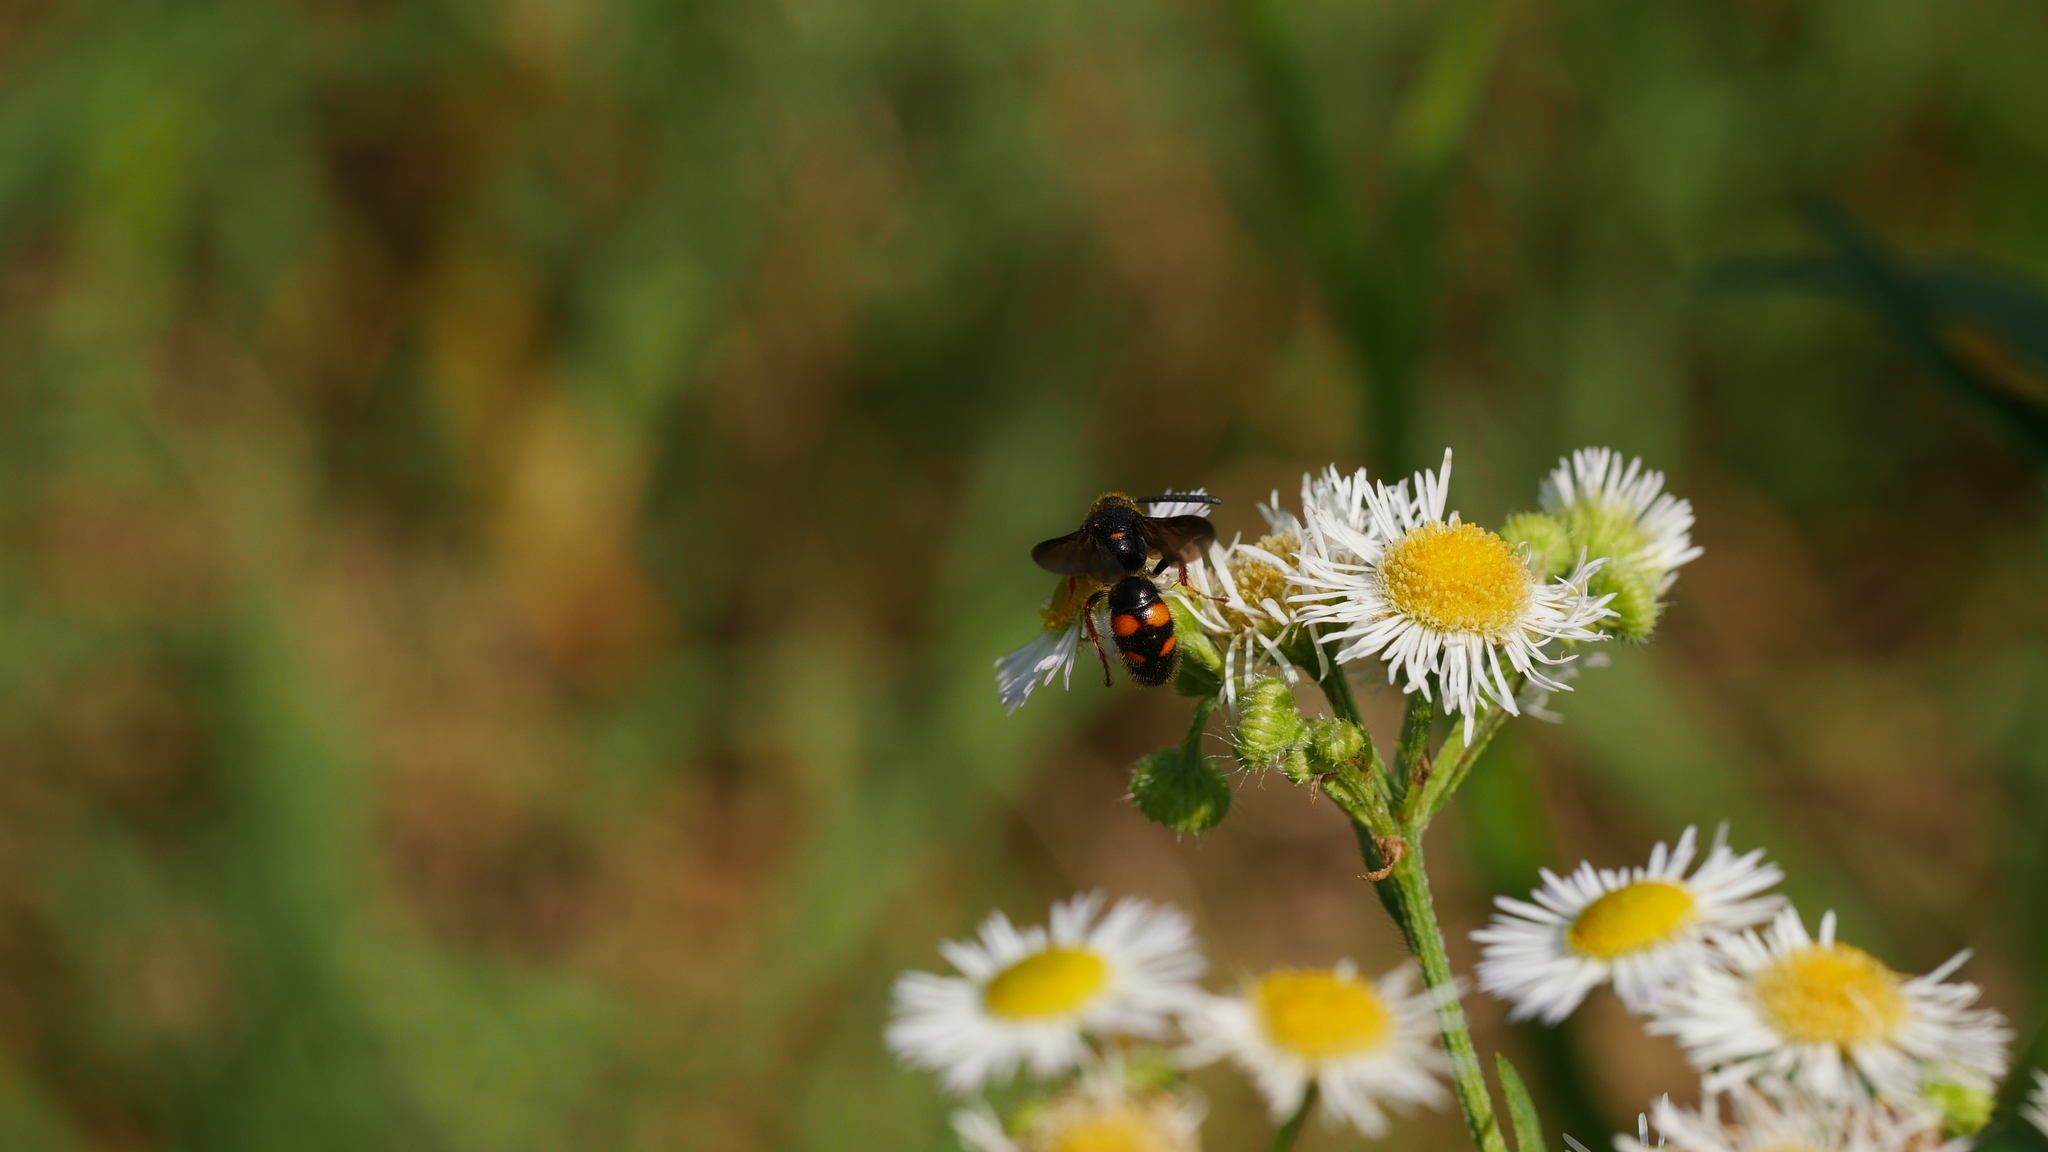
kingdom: Animalia
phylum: Arthropoda
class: Insecta
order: Hymenoptera
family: Scoliidae
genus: Scolia
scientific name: Scolia nobilitata
